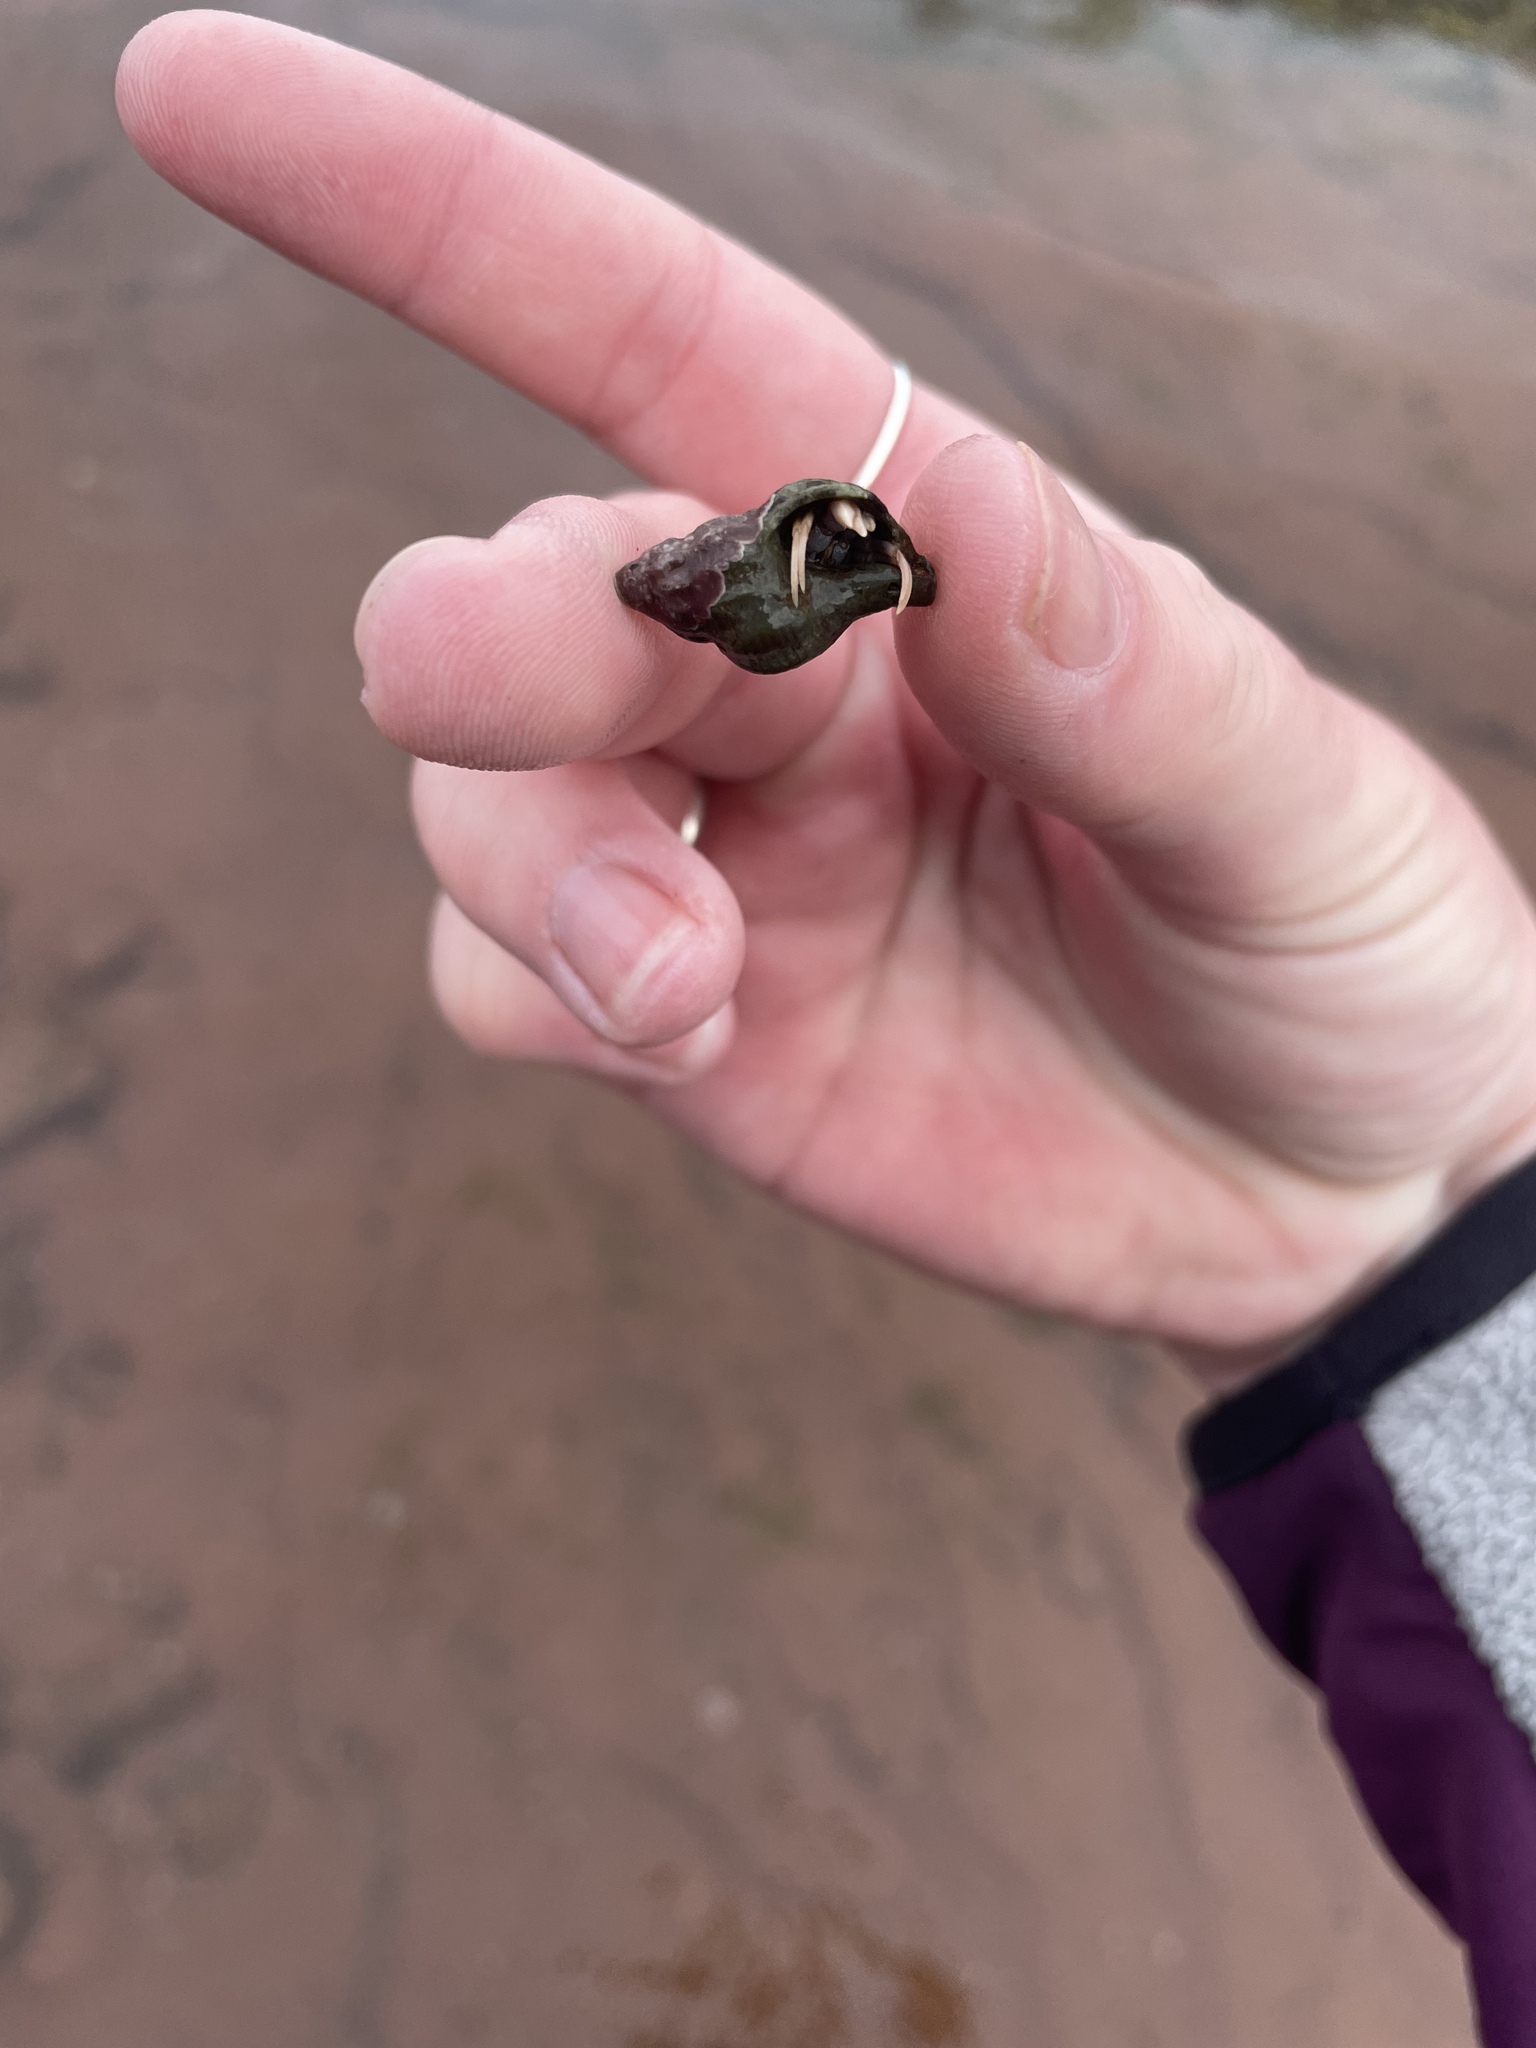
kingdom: Animalia
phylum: Arthropoda
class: Malacostraca
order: Decapoda
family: Paguridae
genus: Pagurus
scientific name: Pagurus longicarpus
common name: Long-armed hermit crab
